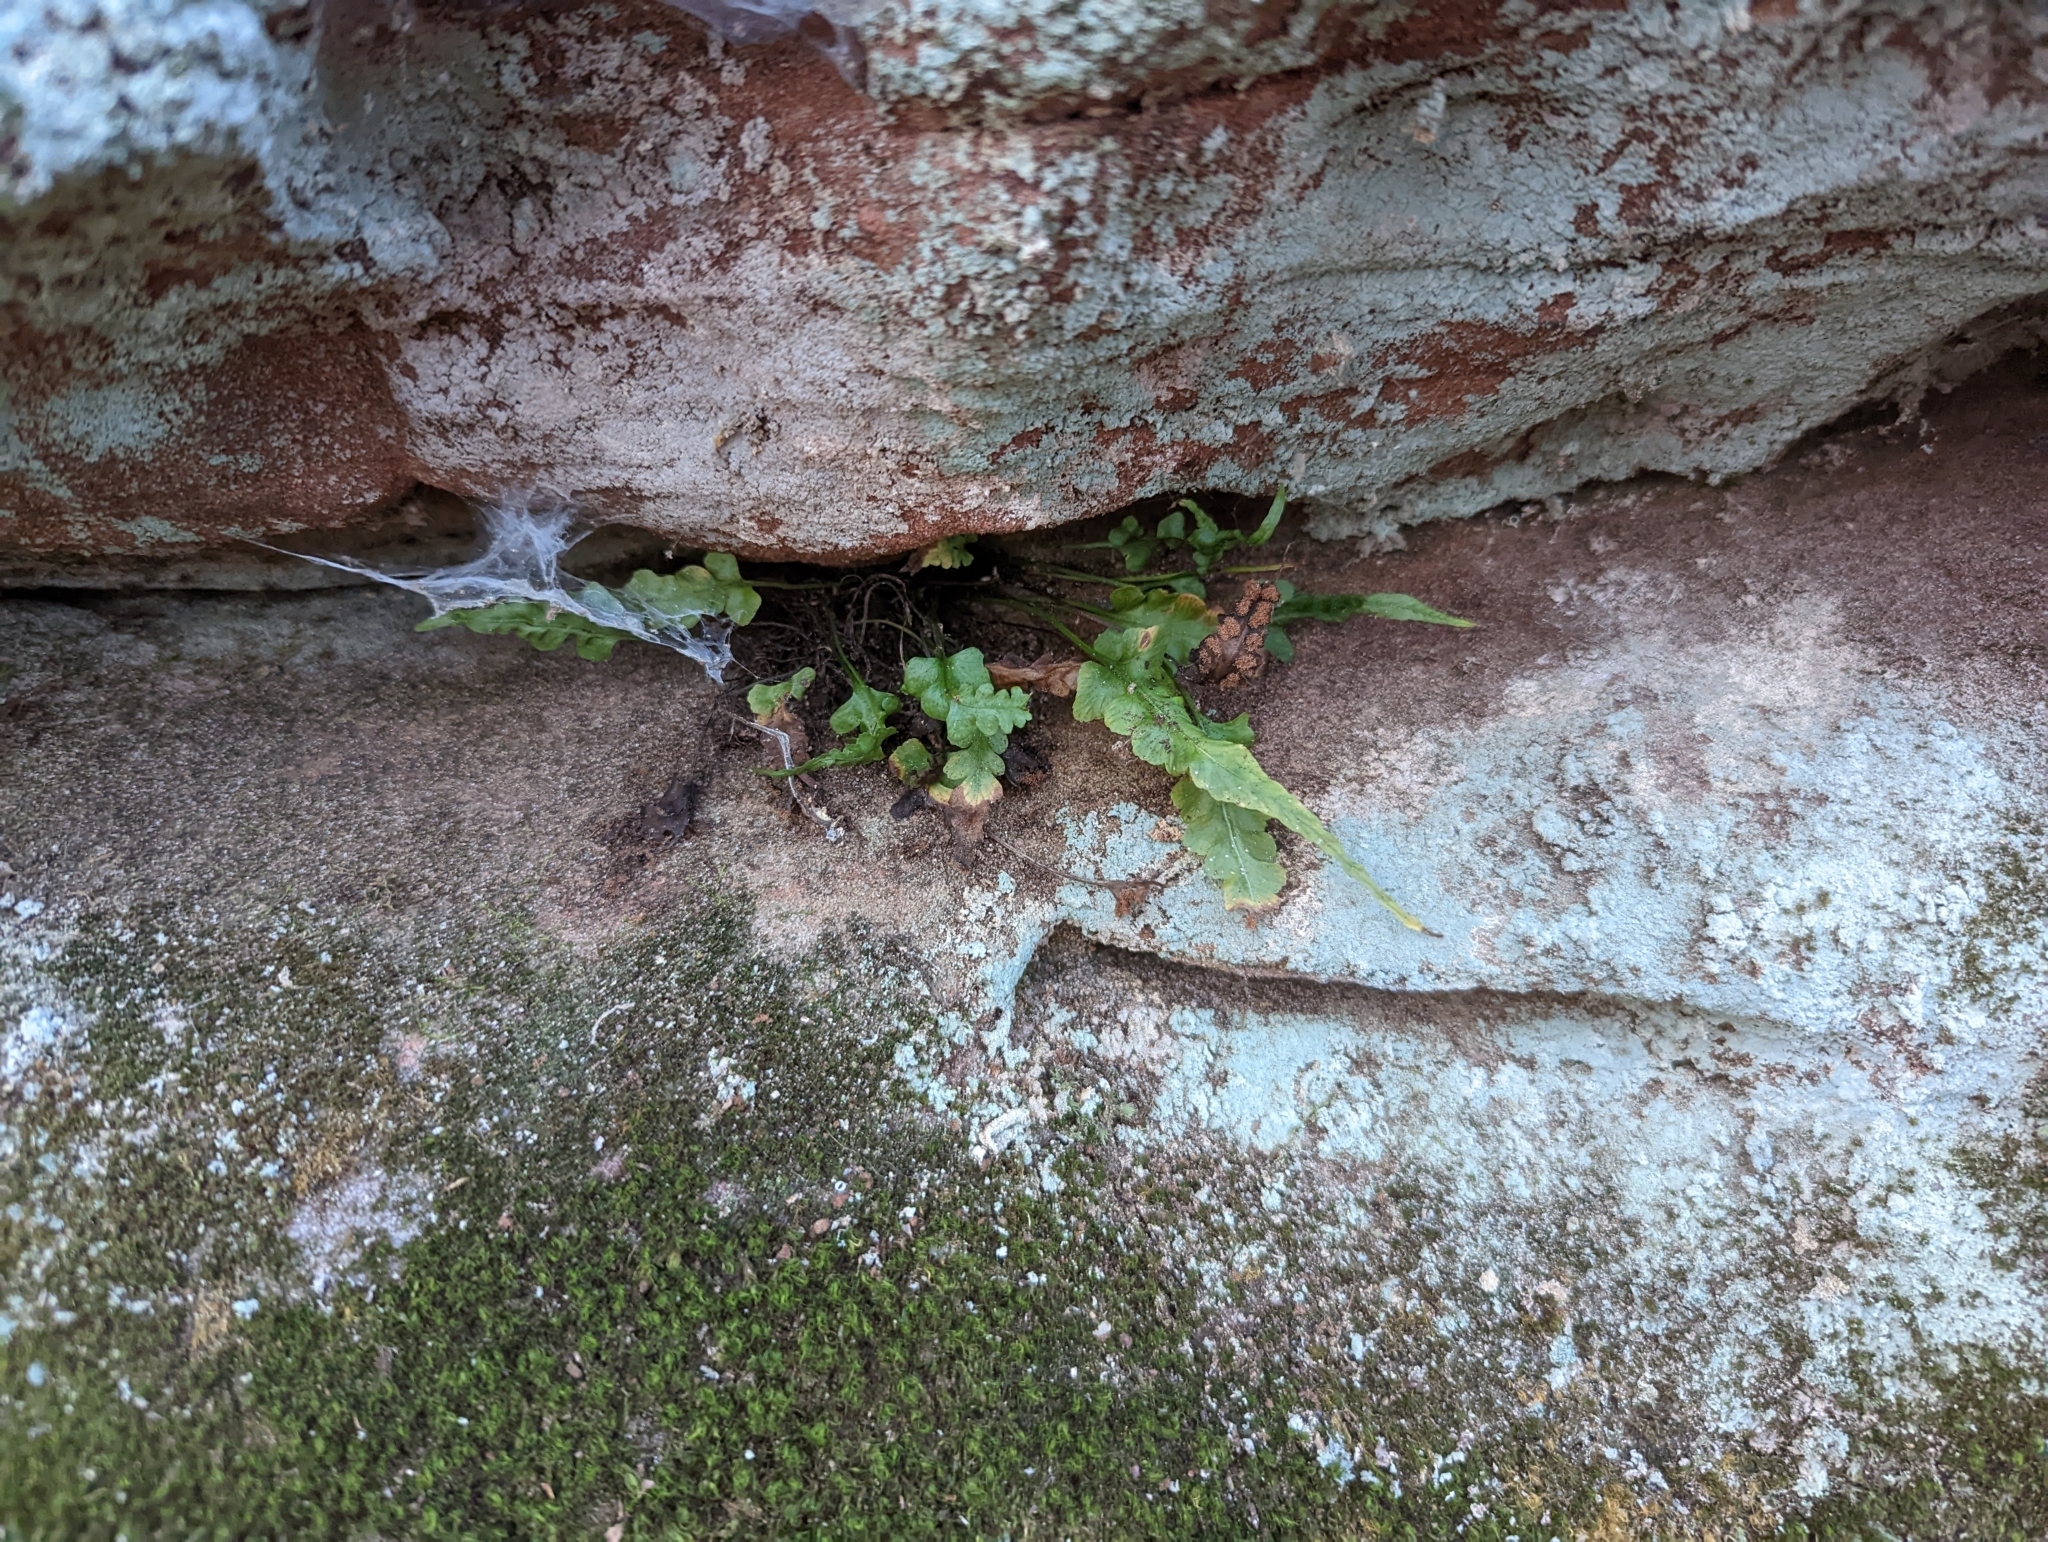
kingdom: Plantae
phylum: Tracheophyta
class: Polypodiopsida
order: Polypodiales
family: Aspleniaceae
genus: Asplenium
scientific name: Asplenium pinnatifidum
